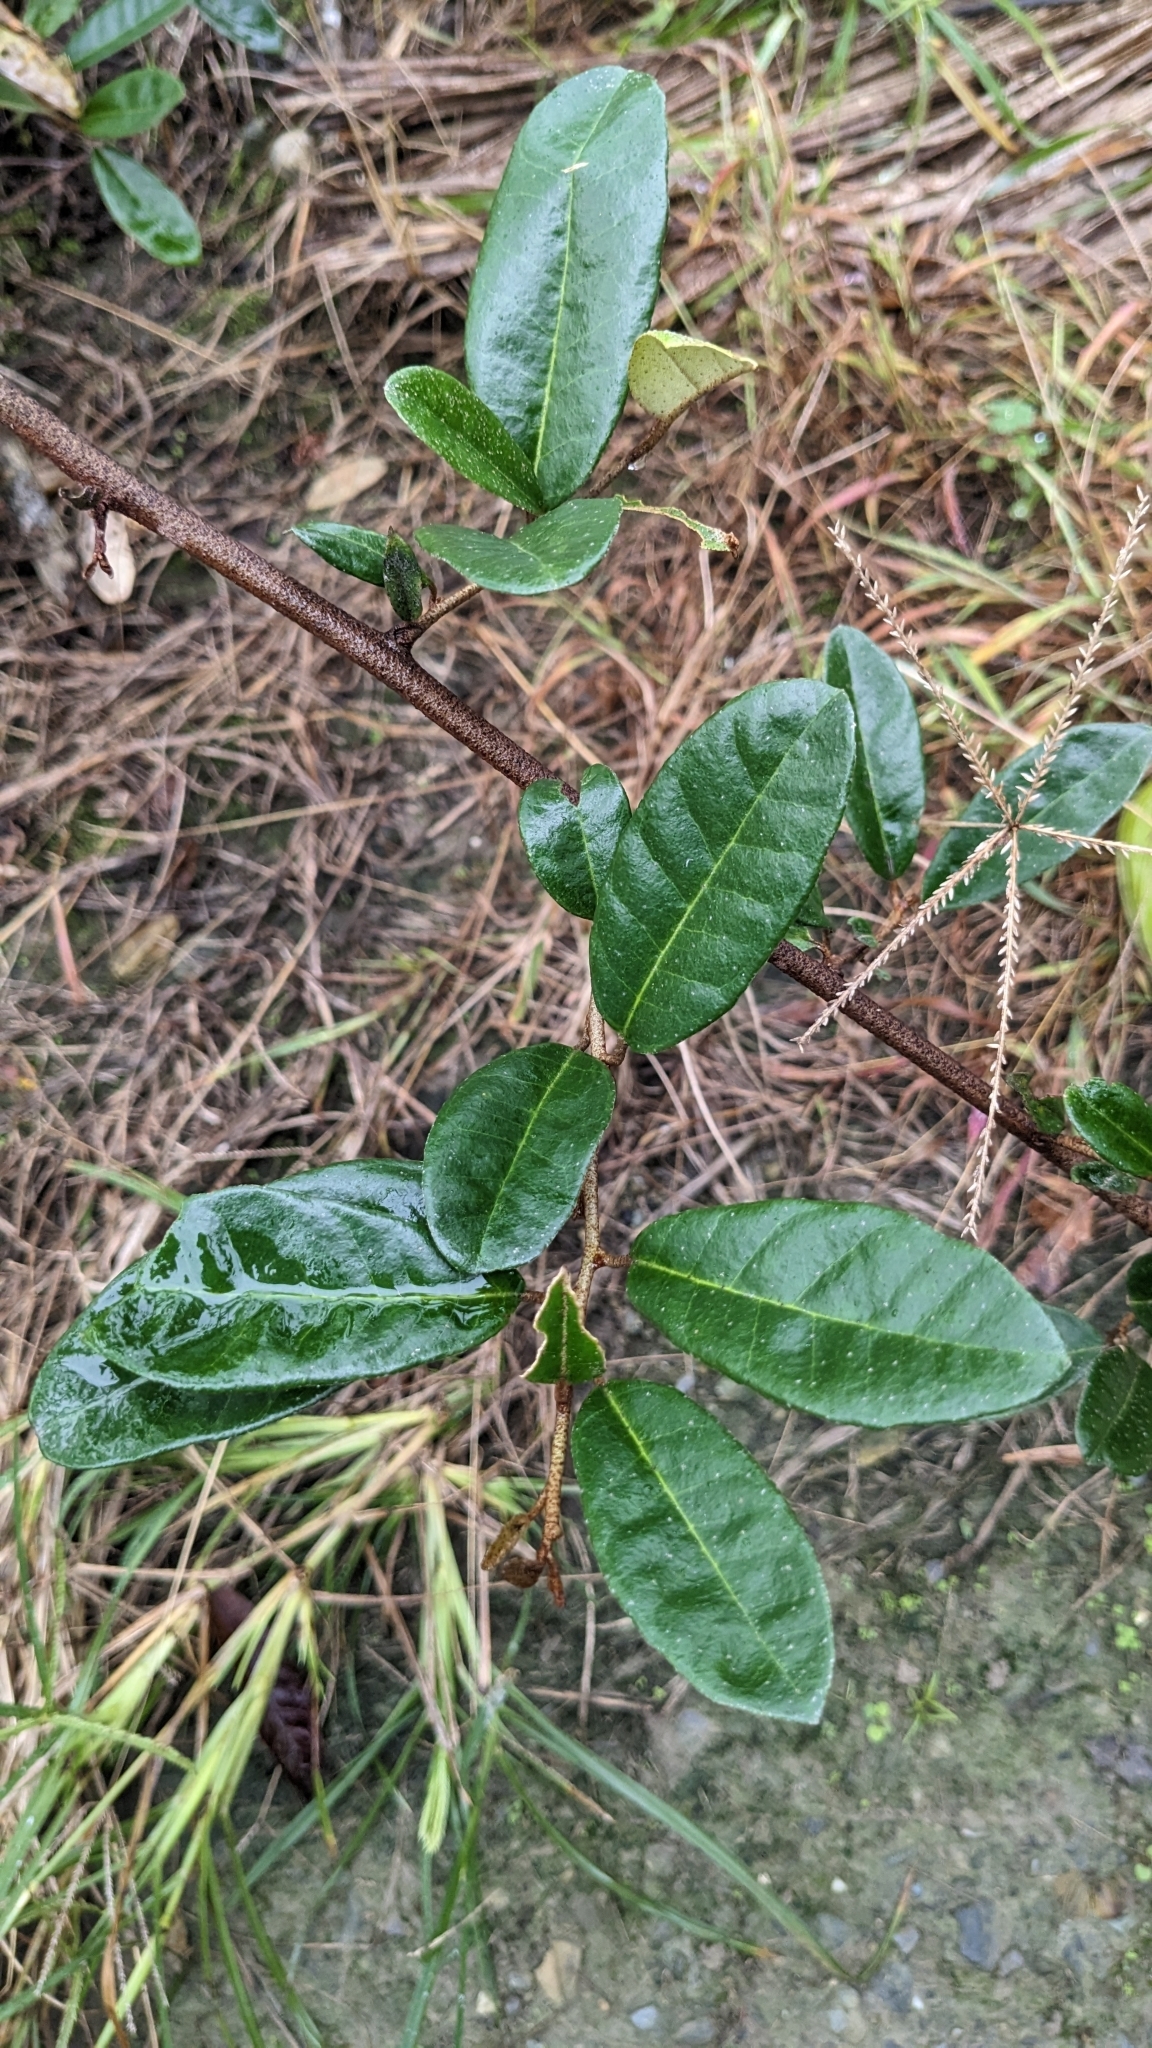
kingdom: Plantae
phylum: Tracheophyta
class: Magnoliopsida
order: Rosales
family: Elaeagnaceae
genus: Elaeagnus
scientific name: Elaeagnus formosana
